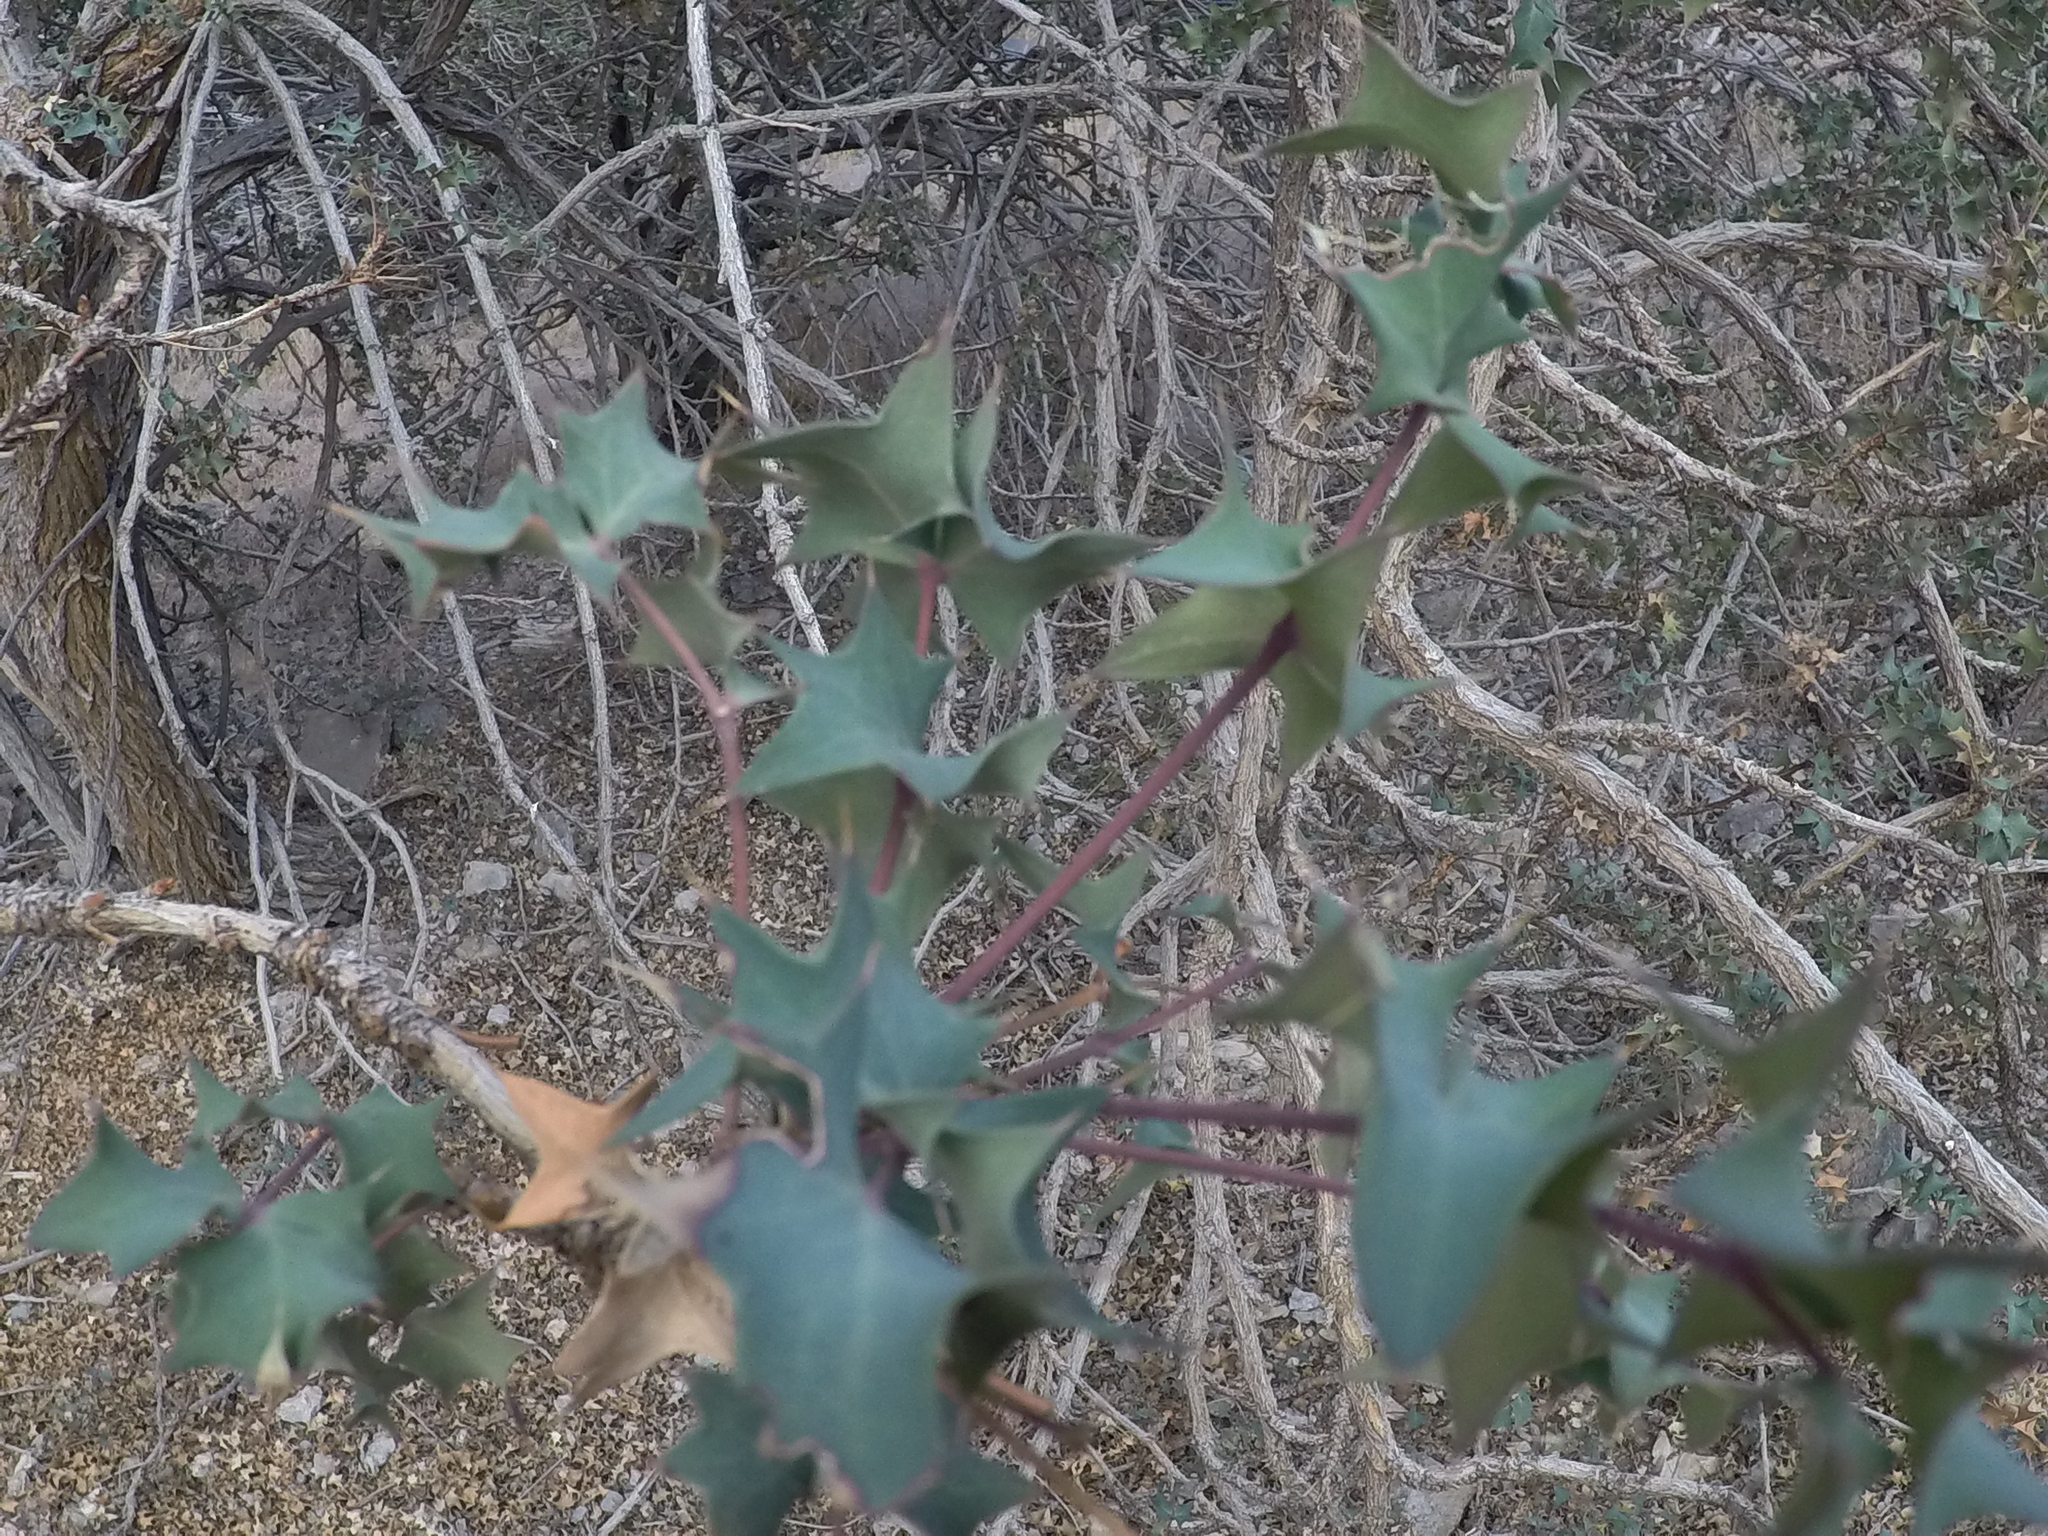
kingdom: Plantae
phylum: Tracheophyta
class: Magnoliopsida
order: Ranunculales
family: Berberidaceae
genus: Alloberberis
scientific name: Alloberberis fremontii
